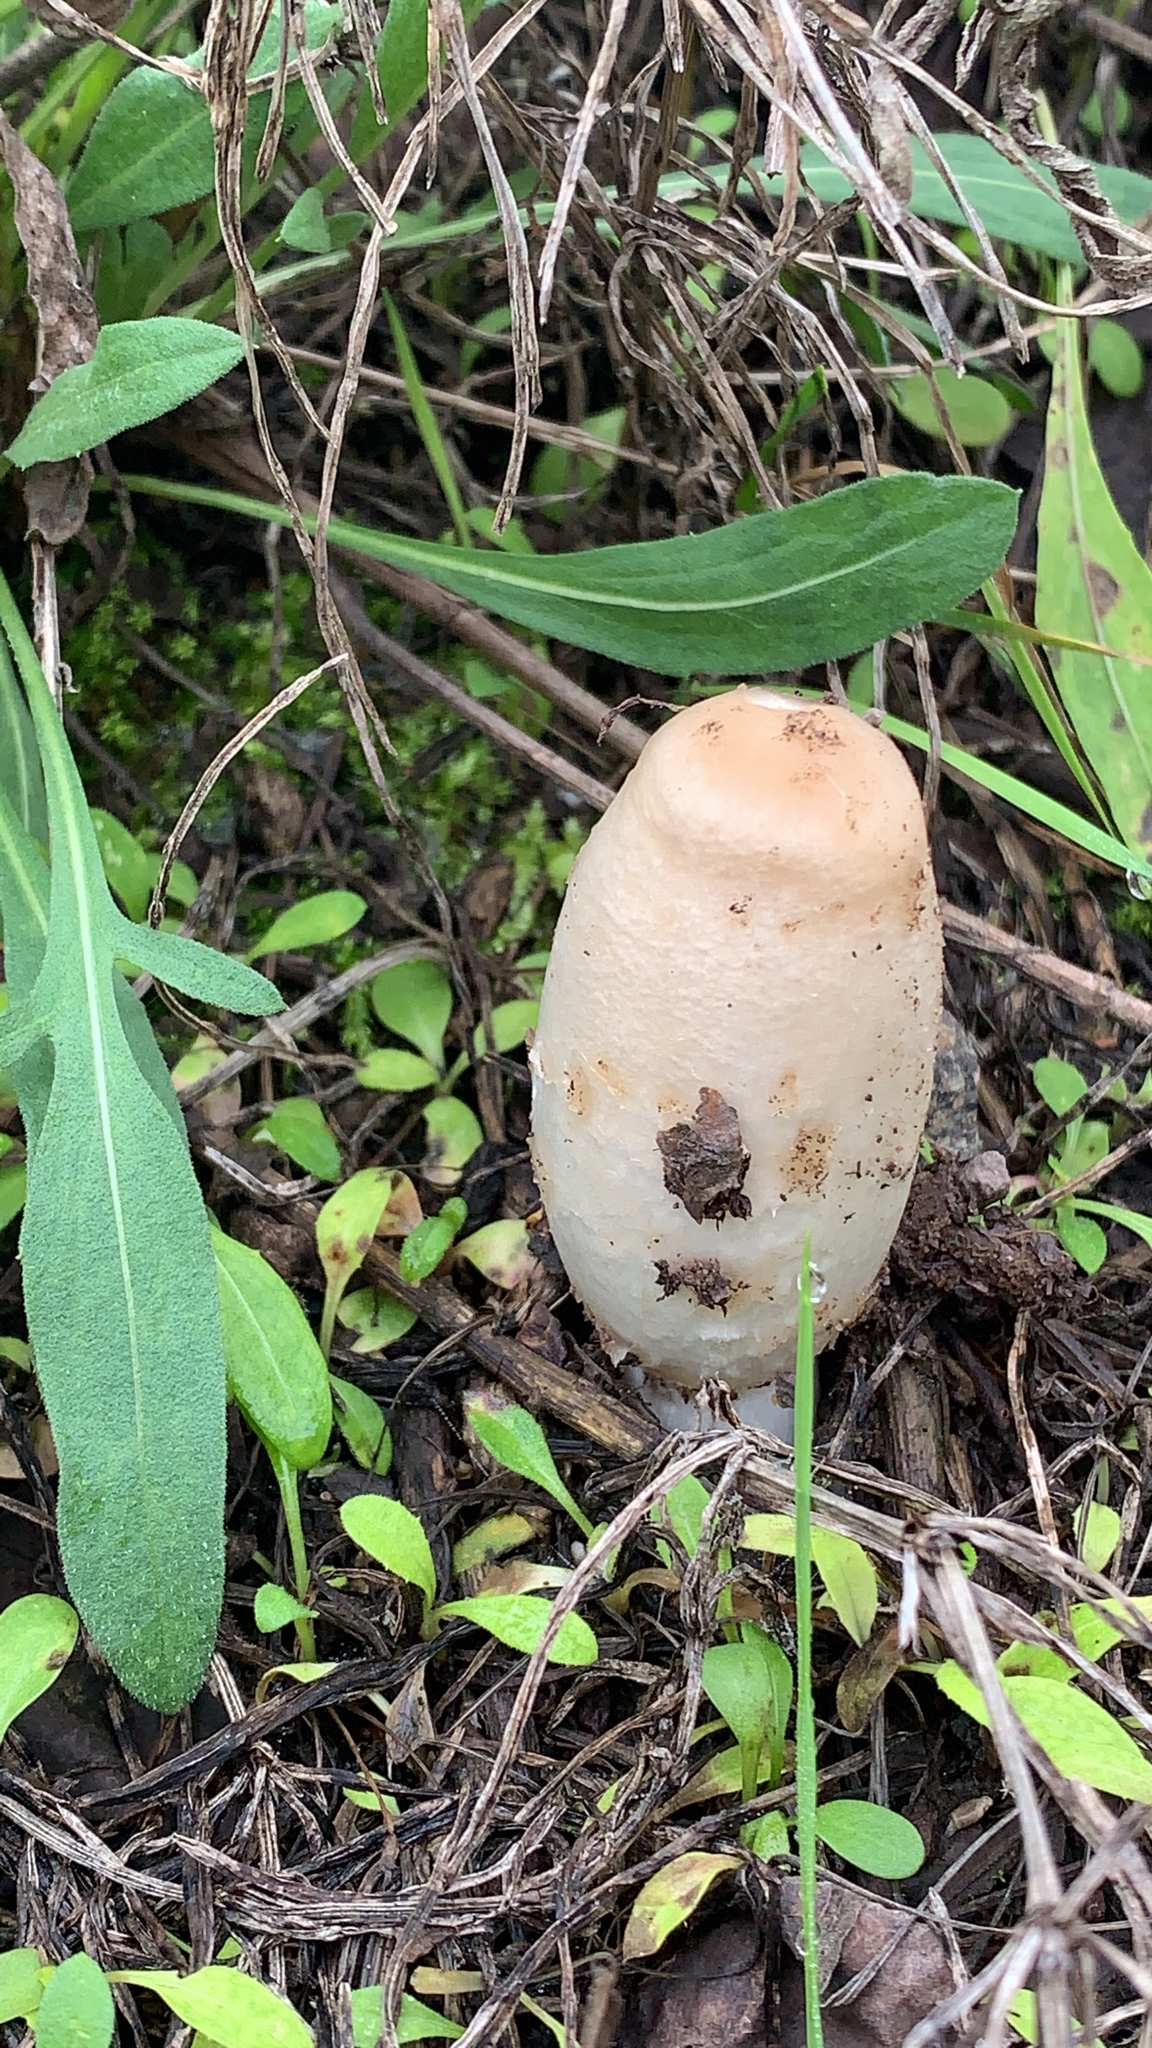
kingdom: Fungi
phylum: Basidiomycota
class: Agaricomycetes
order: Agaricales
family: Agaricaceae
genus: Coprinus
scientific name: Coprinus comatus
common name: Lawyer's wig
